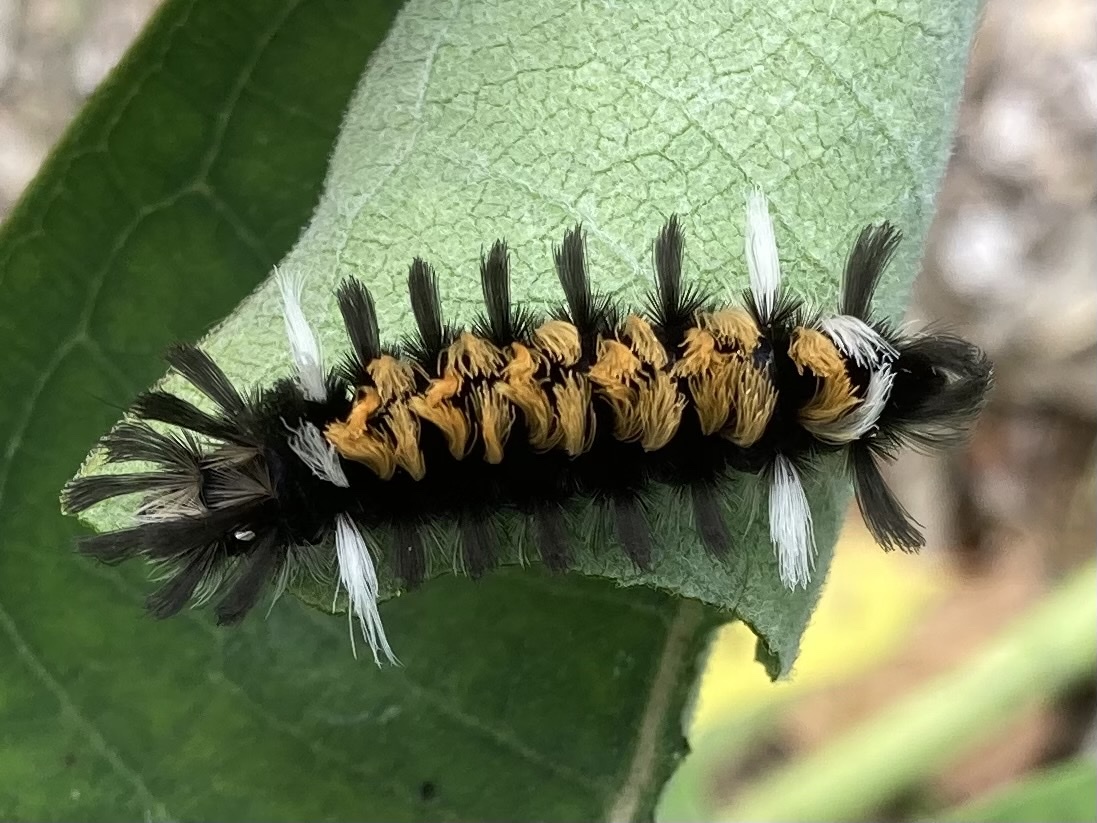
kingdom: Animalia
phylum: Arthropoda
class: Insecta
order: Lepidoptera
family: Erebidae
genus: Euchaetes
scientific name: Euchaetes egle
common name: Milkweed tussock moth
